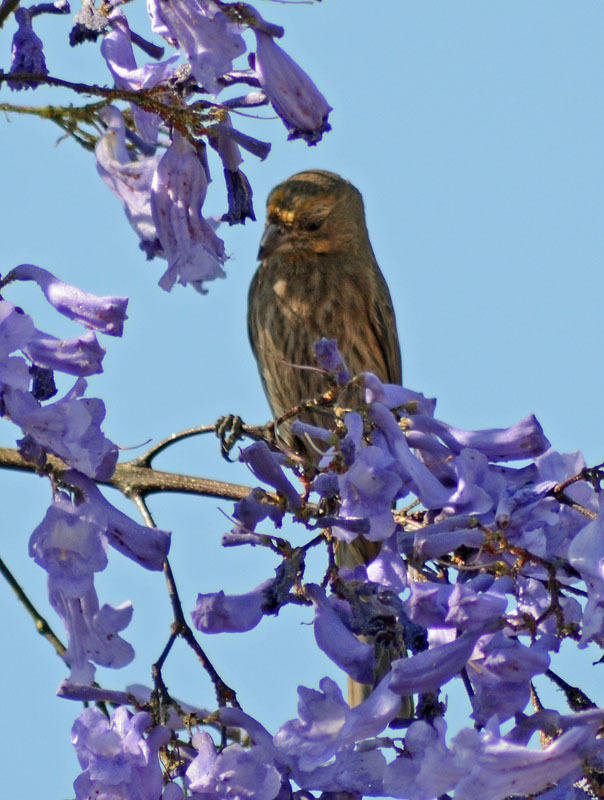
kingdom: Animalia
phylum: Chordata
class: Aves
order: Passeriformes
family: Fringillidae
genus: Haemorhous
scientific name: Haemorhous mexicanus
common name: House finch
